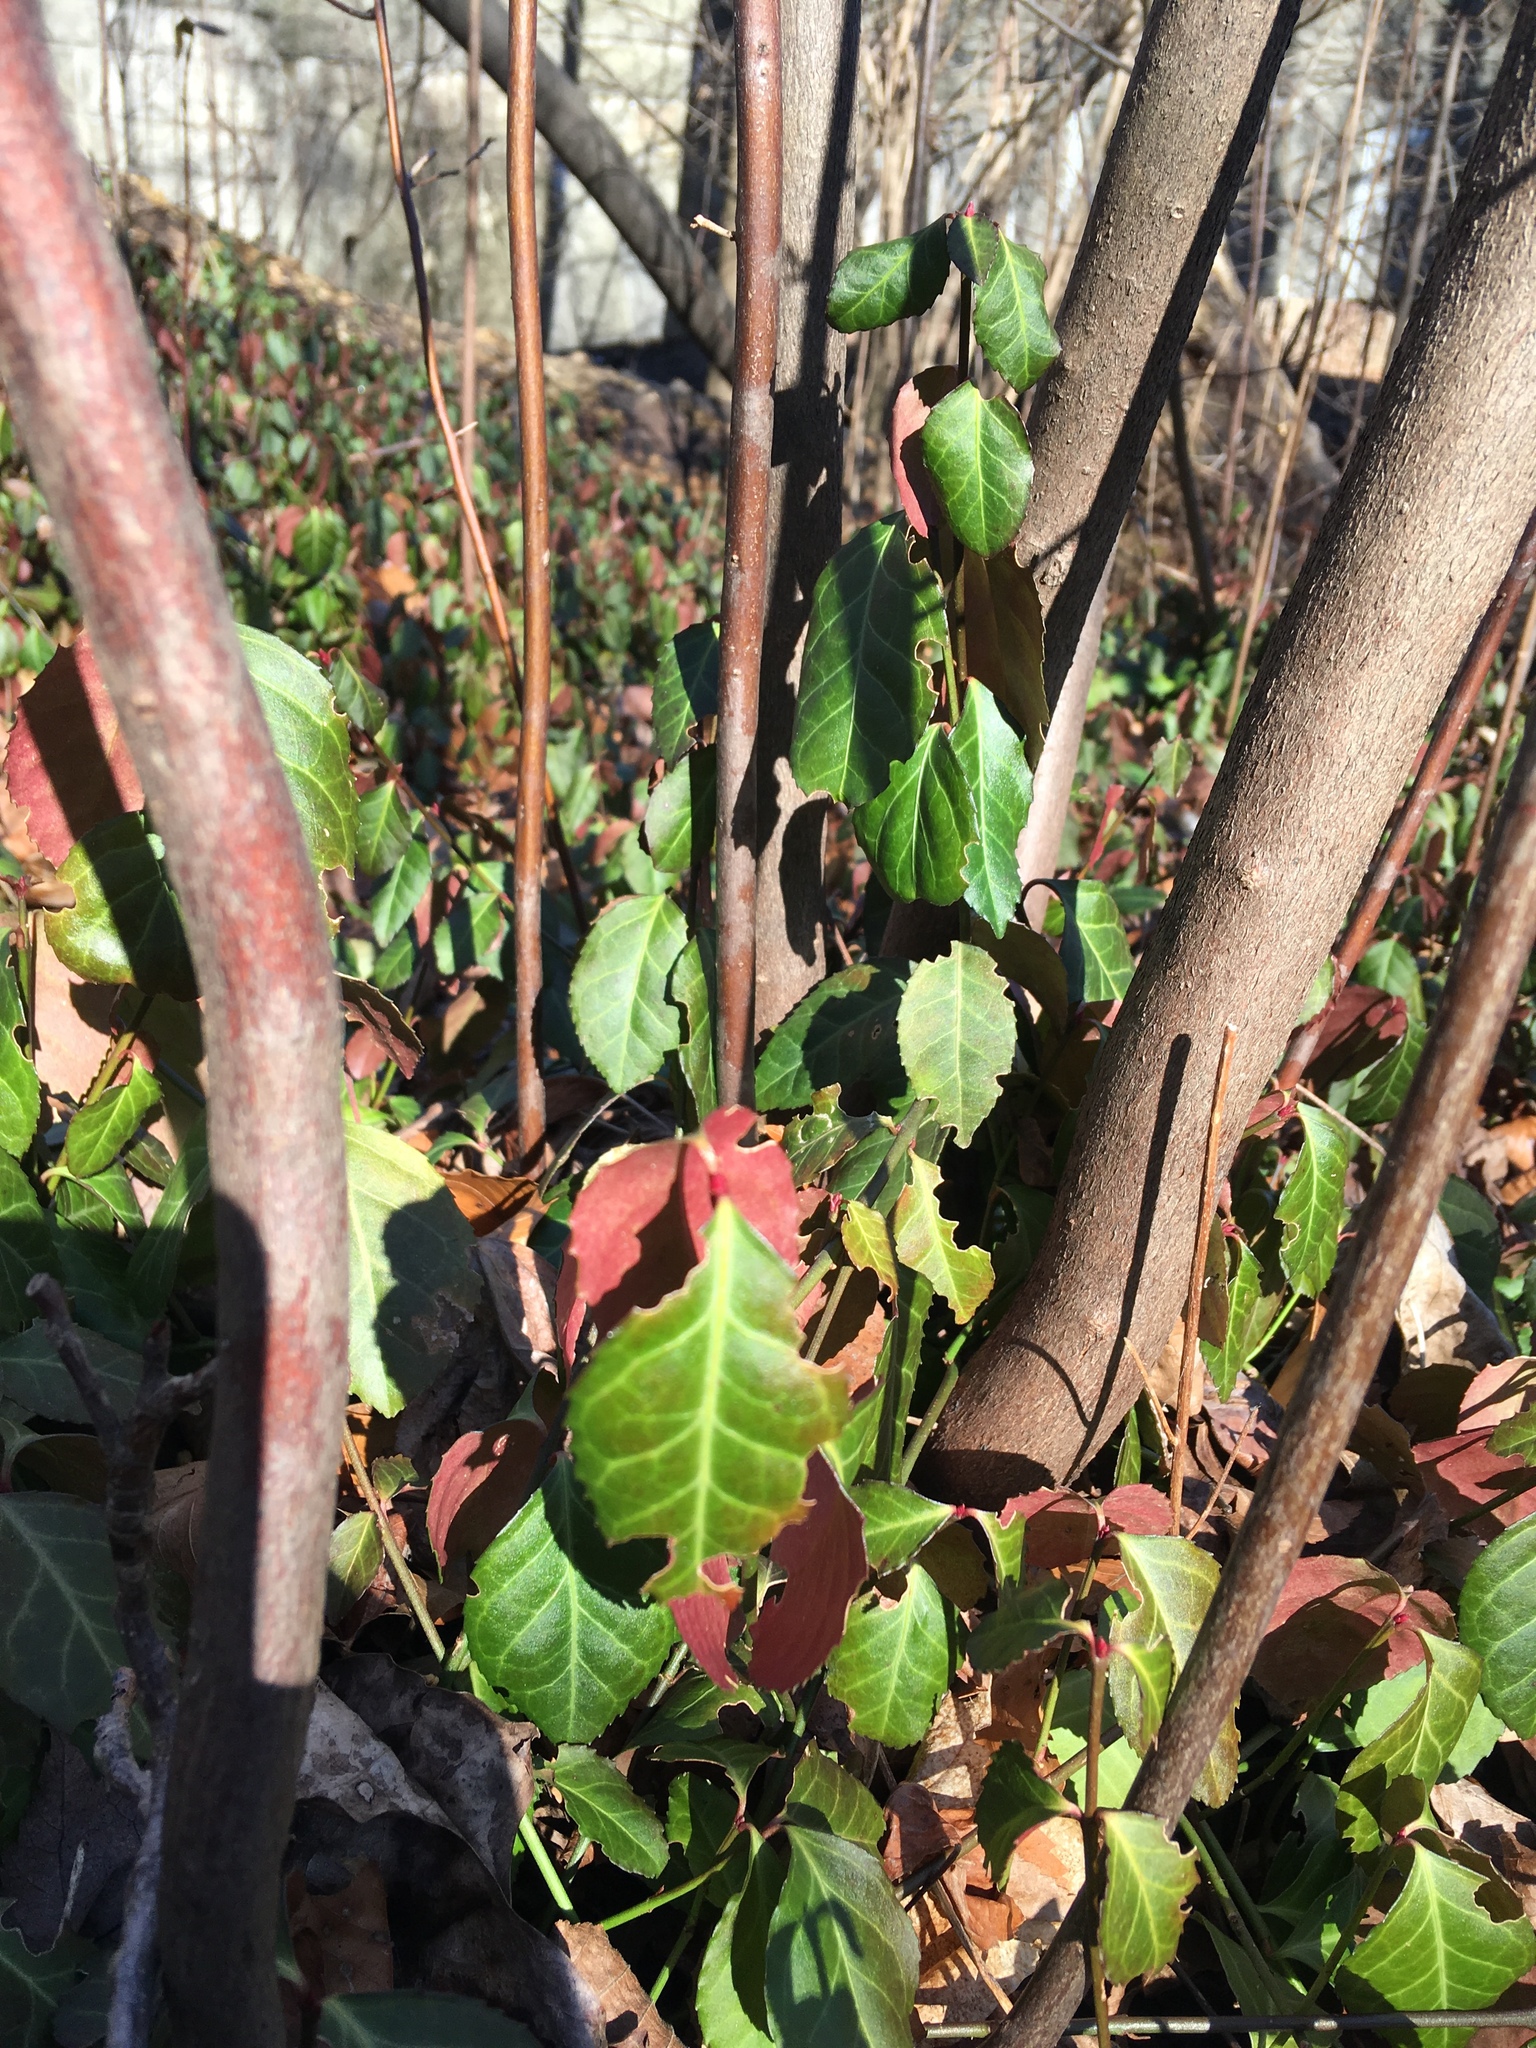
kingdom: Plantae
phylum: Tracheophyta
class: Magnoliopsida
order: Celastrales
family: Celastraceae
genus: Euonymus
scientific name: Euonymus fortunei
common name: Climbing euonymus
